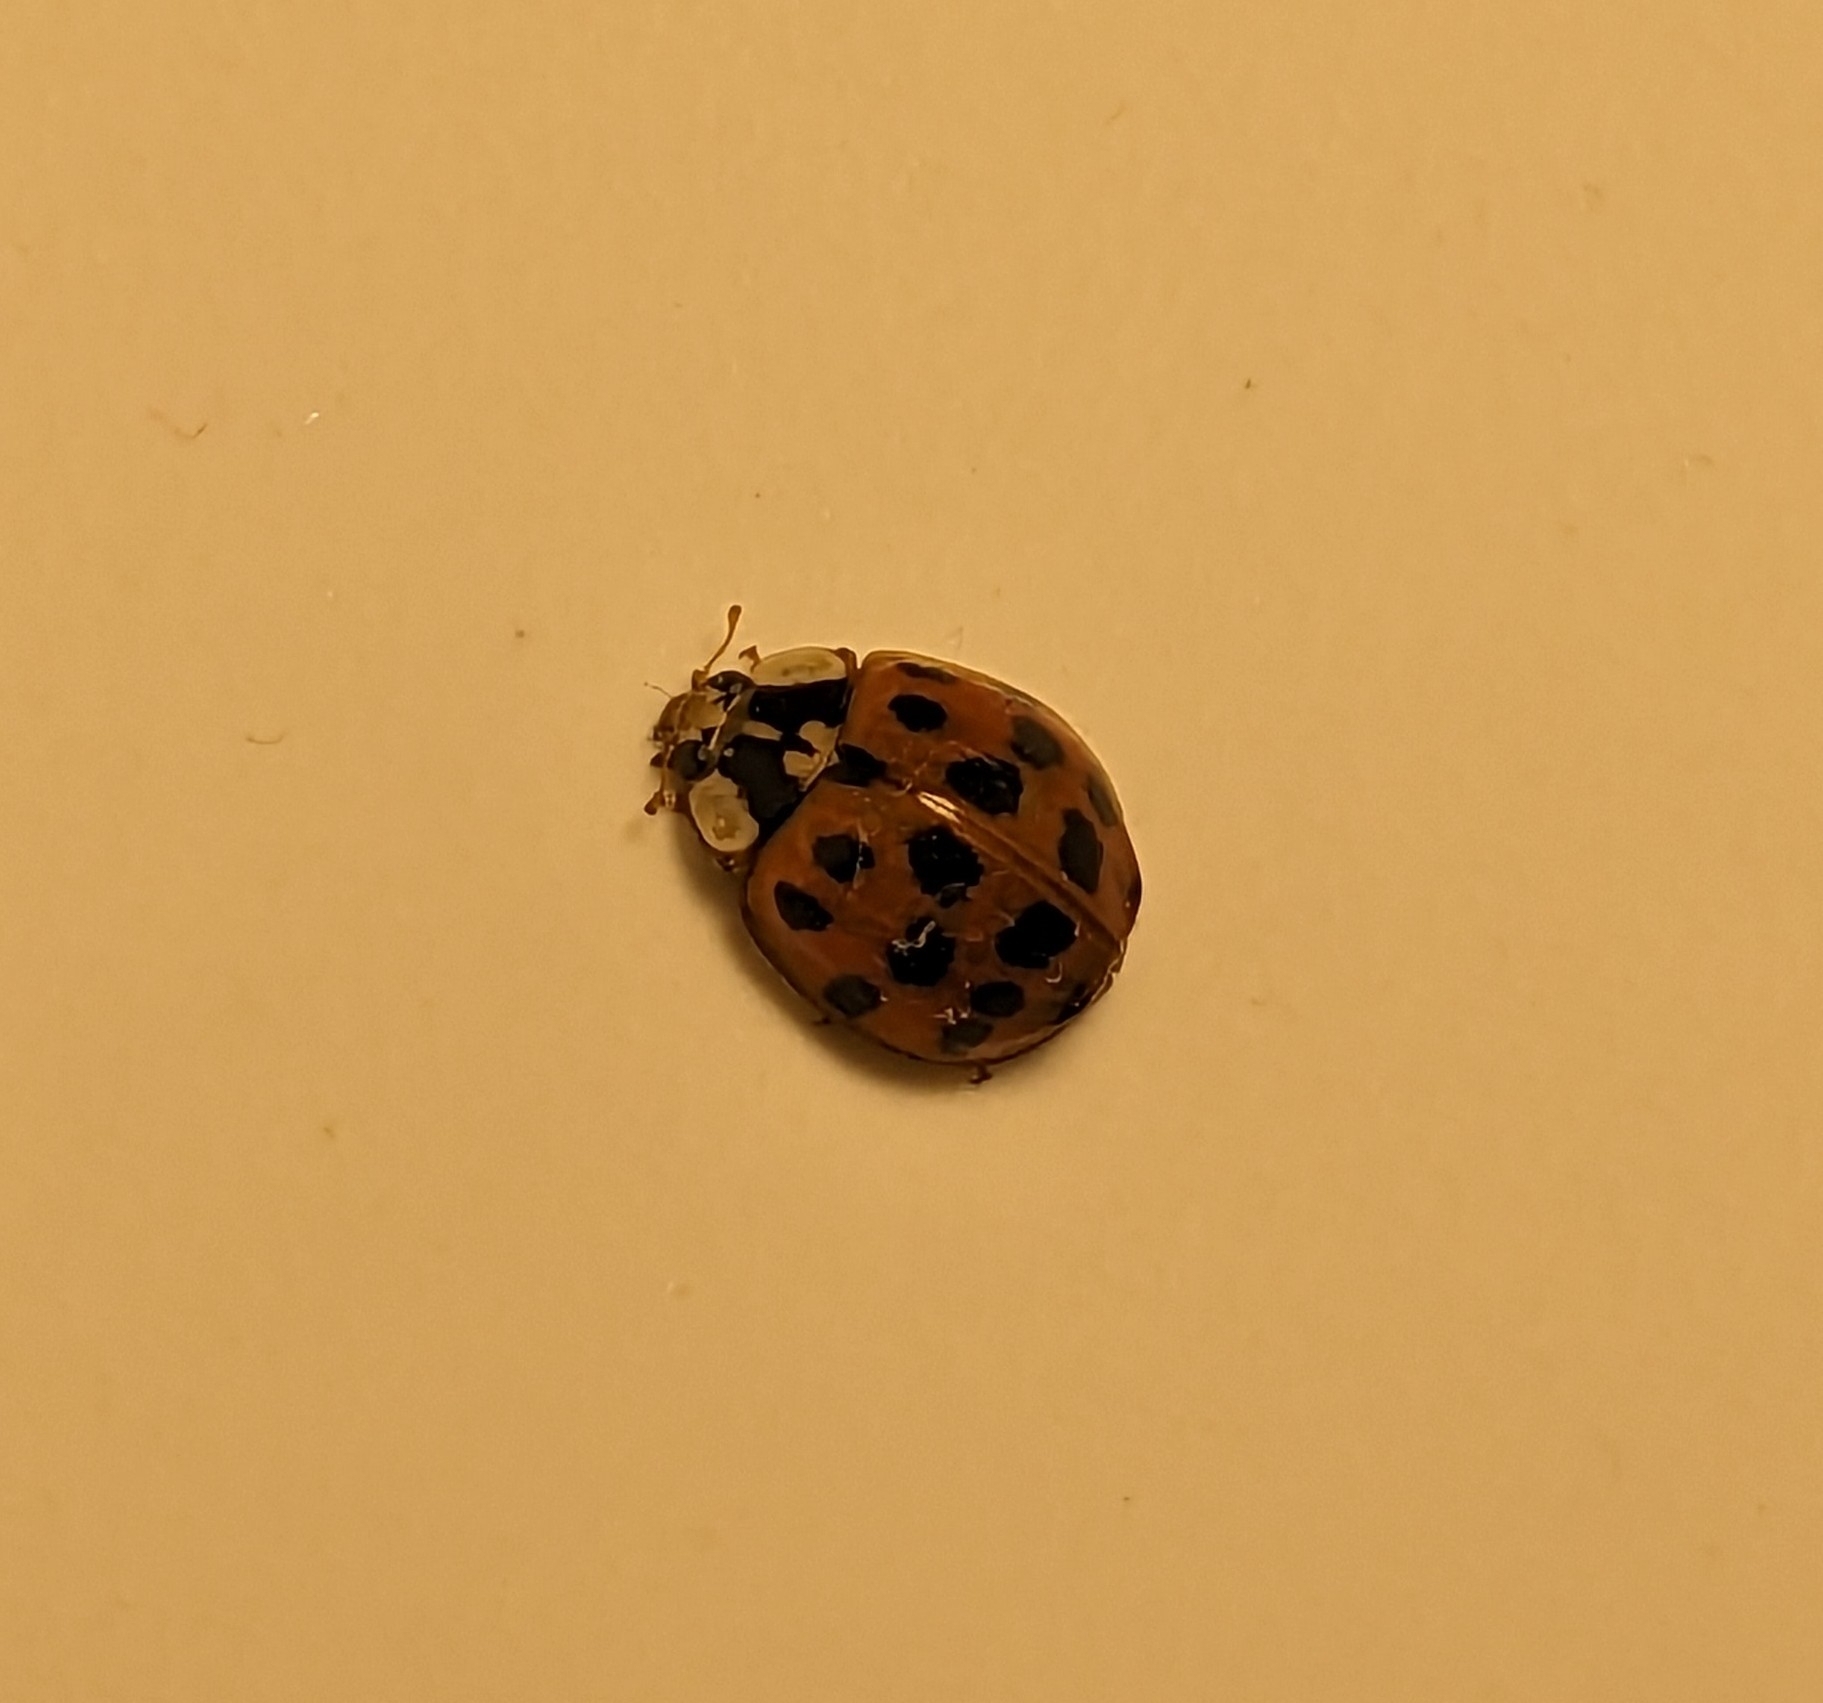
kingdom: Animalia
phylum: Arthropoda
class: Insecta
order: Coleoptera
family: Coccinellidae
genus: Harmonia
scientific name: Harmonia axyridis
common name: Harlequin ladybird
